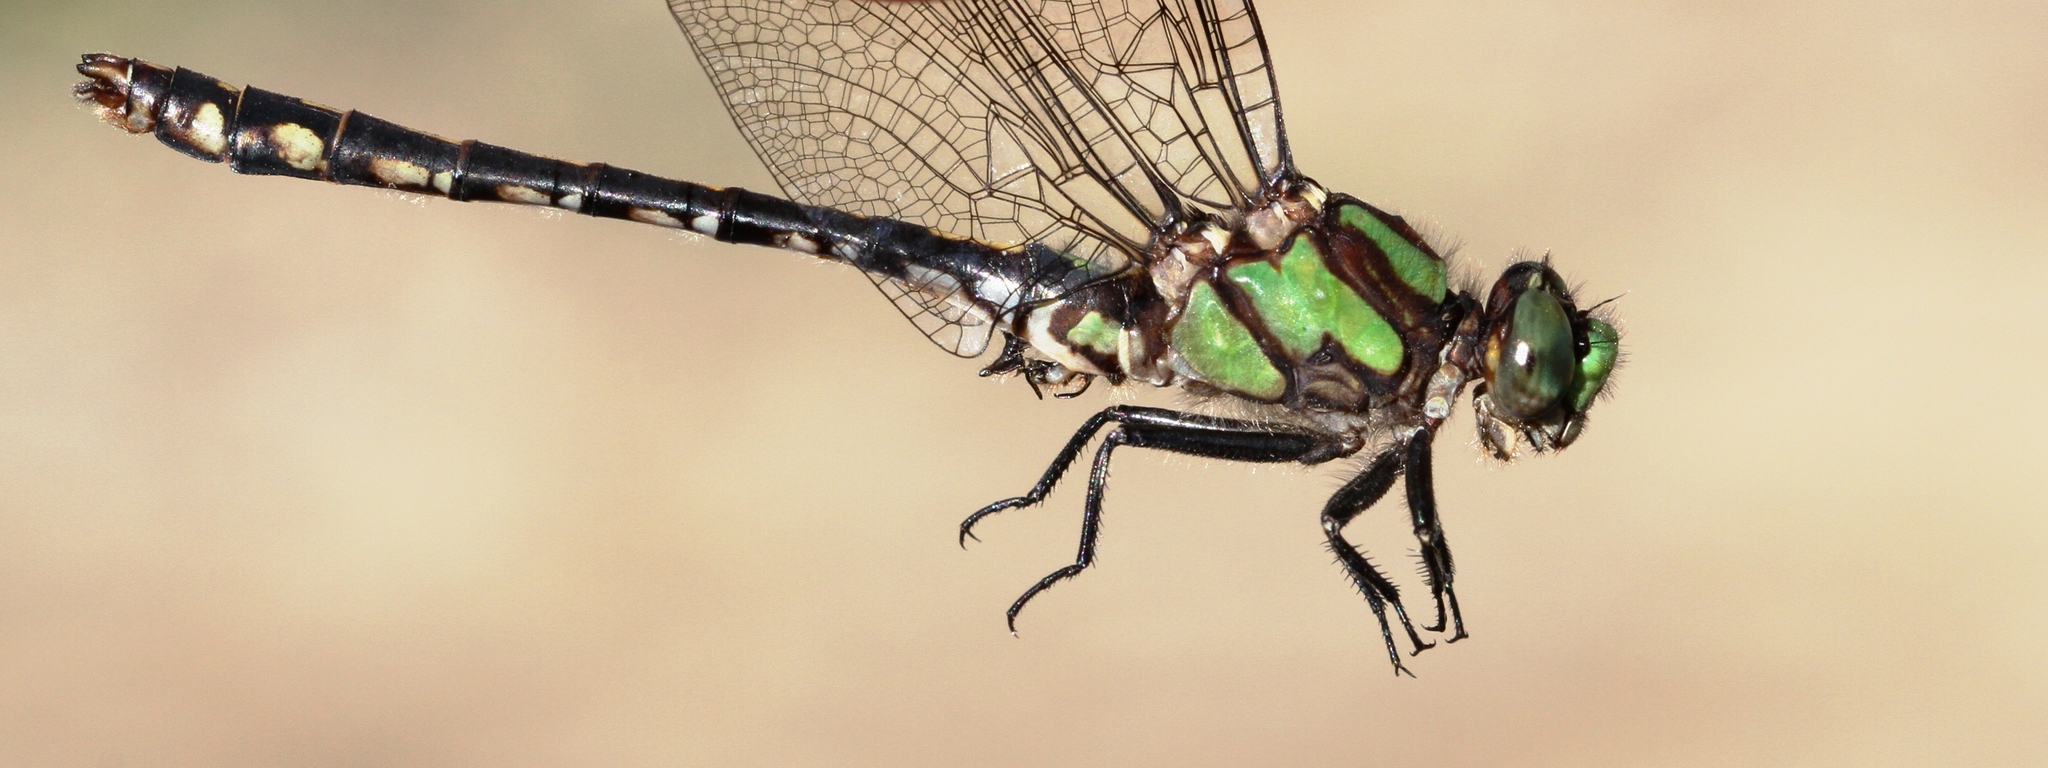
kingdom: Animalia
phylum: Arthropoda
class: Insecta
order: Odonata
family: Gomphidae
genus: Ophiogomphus
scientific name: Ophiogomphus carolus
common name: Riffle snaketail
